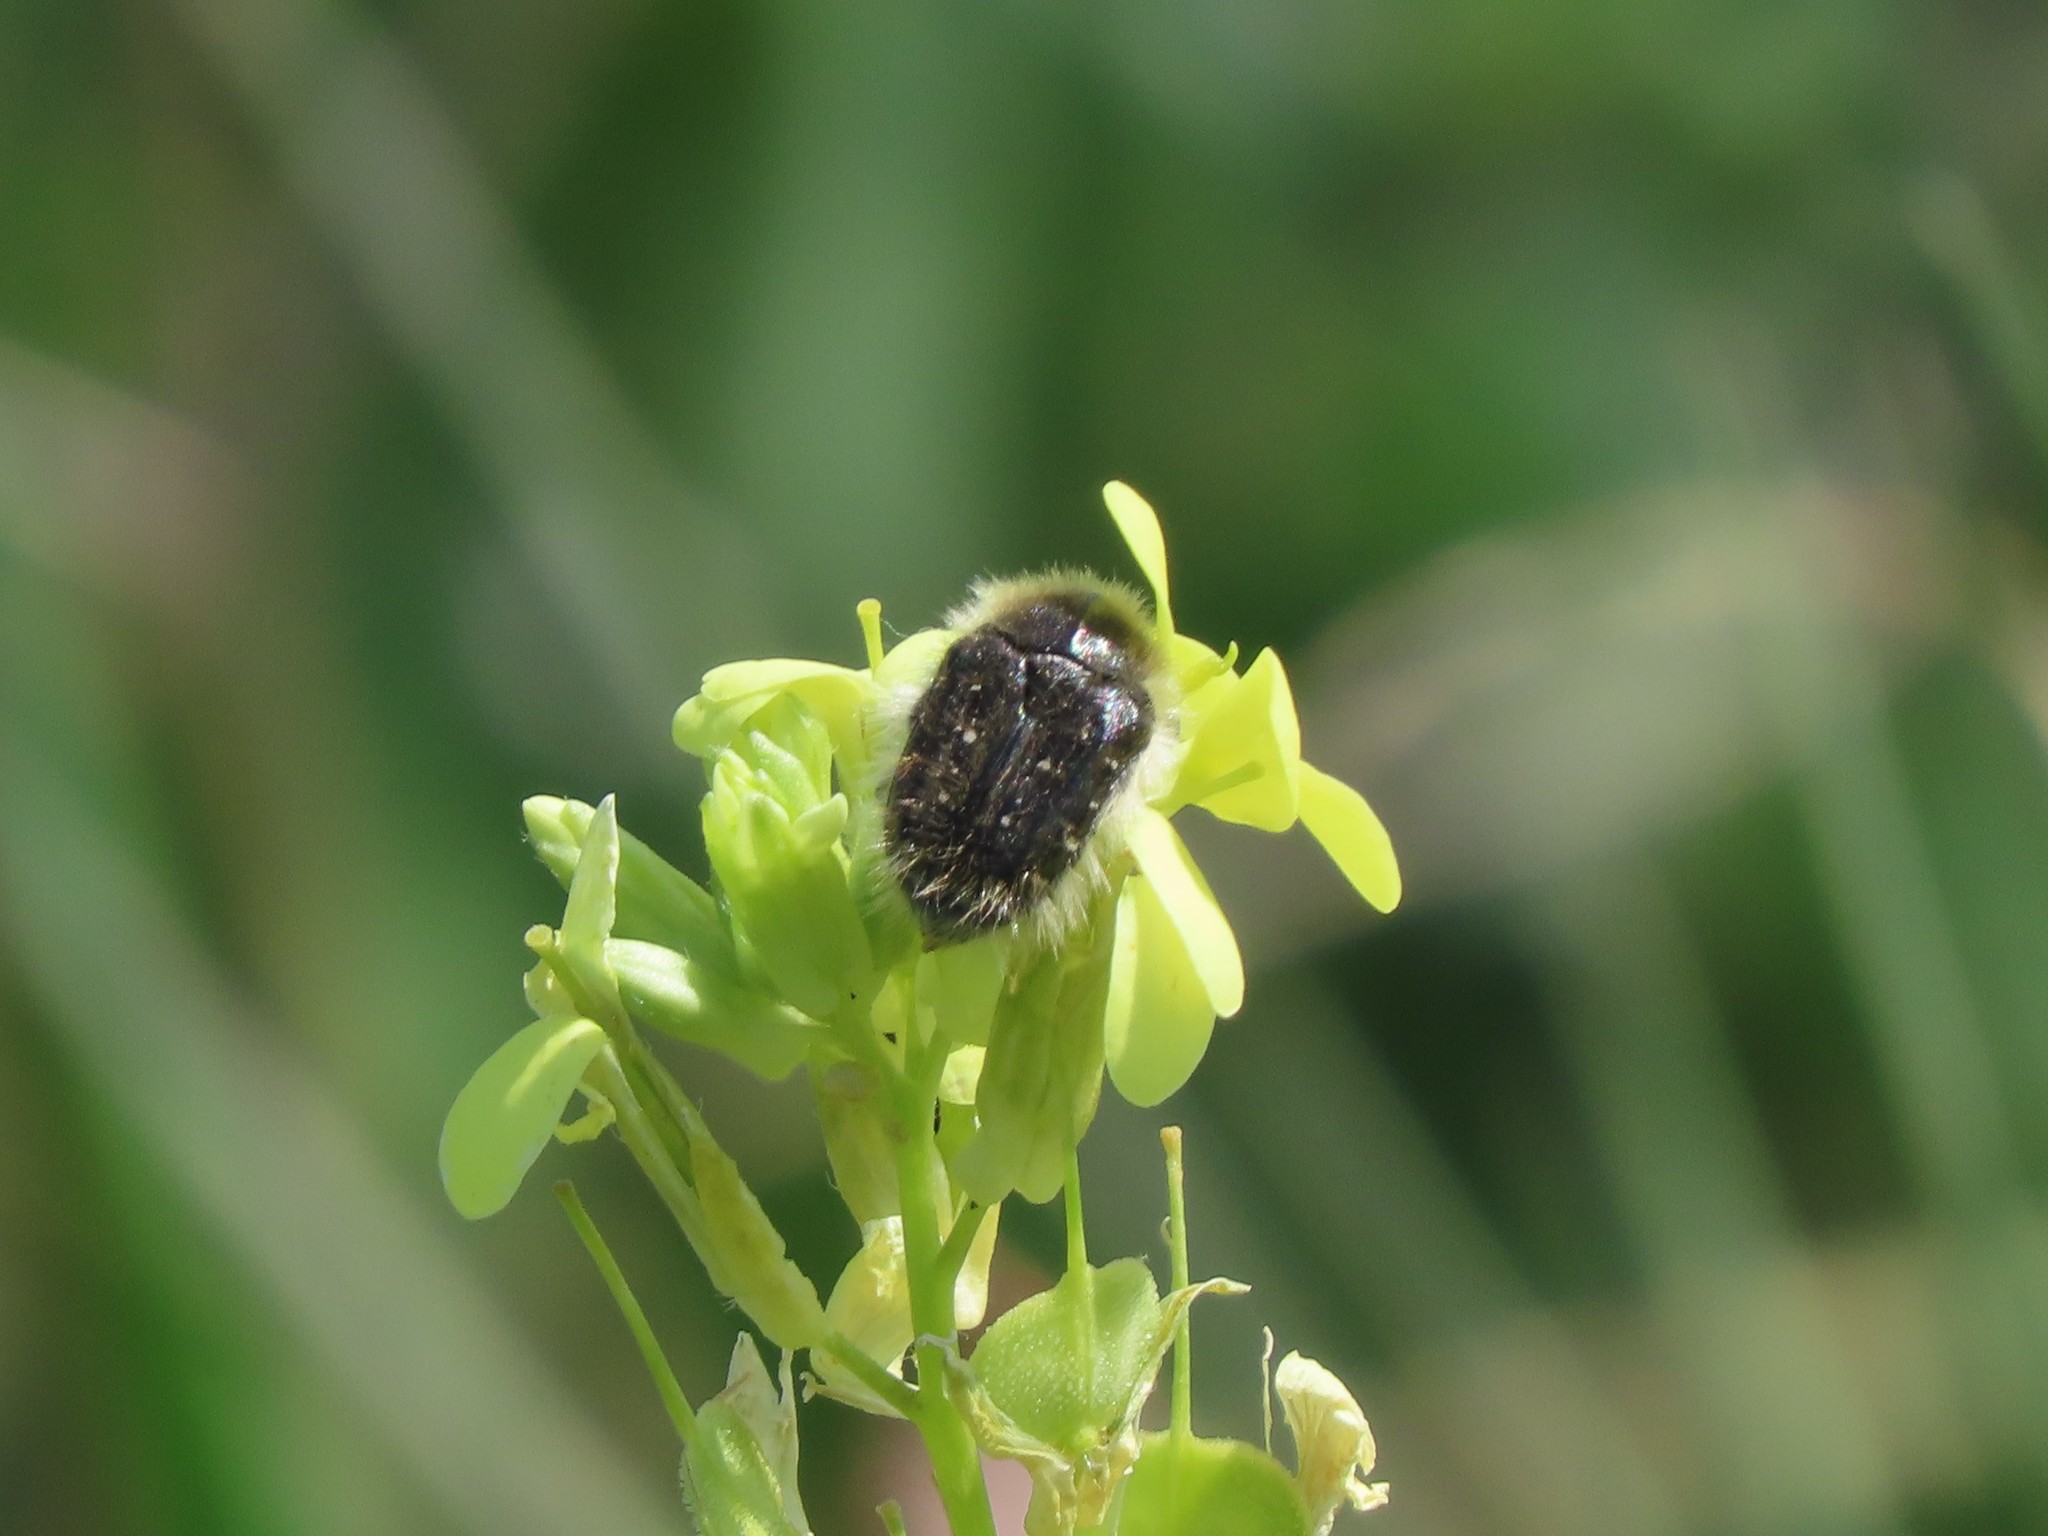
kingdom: Animalia
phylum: Arthropoda
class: Insecta
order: Coleoptera
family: Scarabaeidae
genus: Tropinota
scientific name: Tropinota squalida
